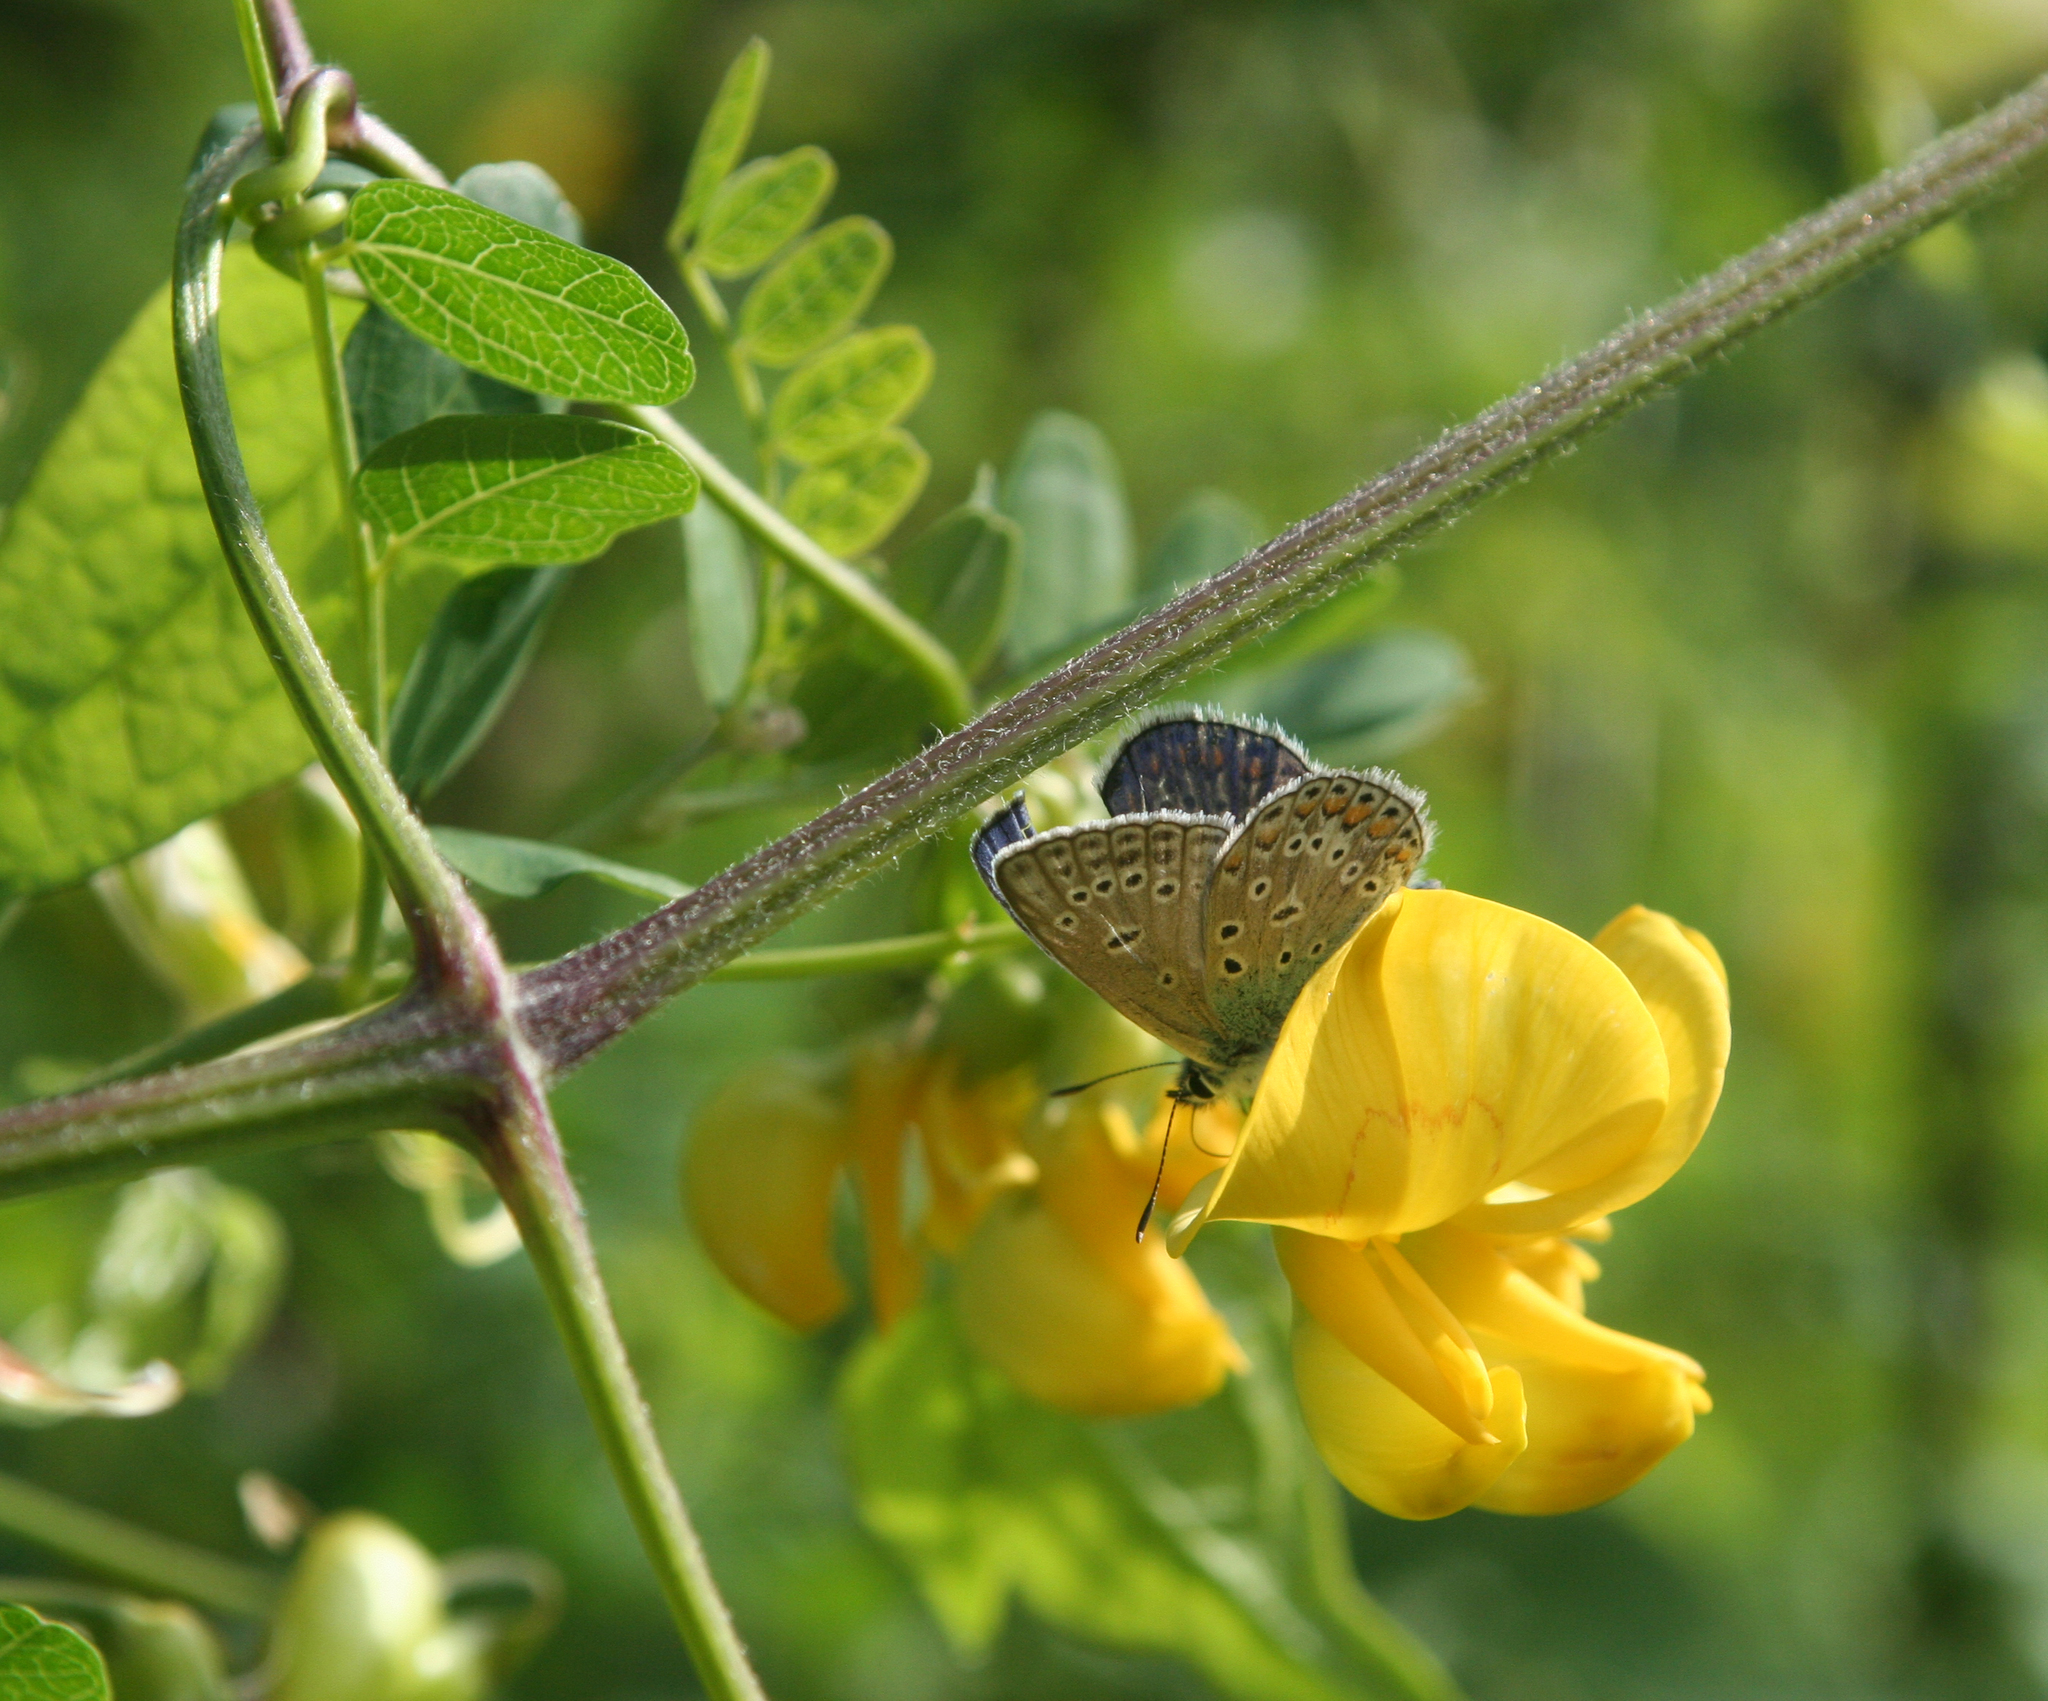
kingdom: Plantae
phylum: Tracheophyta
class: Magnoliopsida
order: Fabales
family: Fabaceae
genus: Colutea
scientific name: Colutea cilicica
